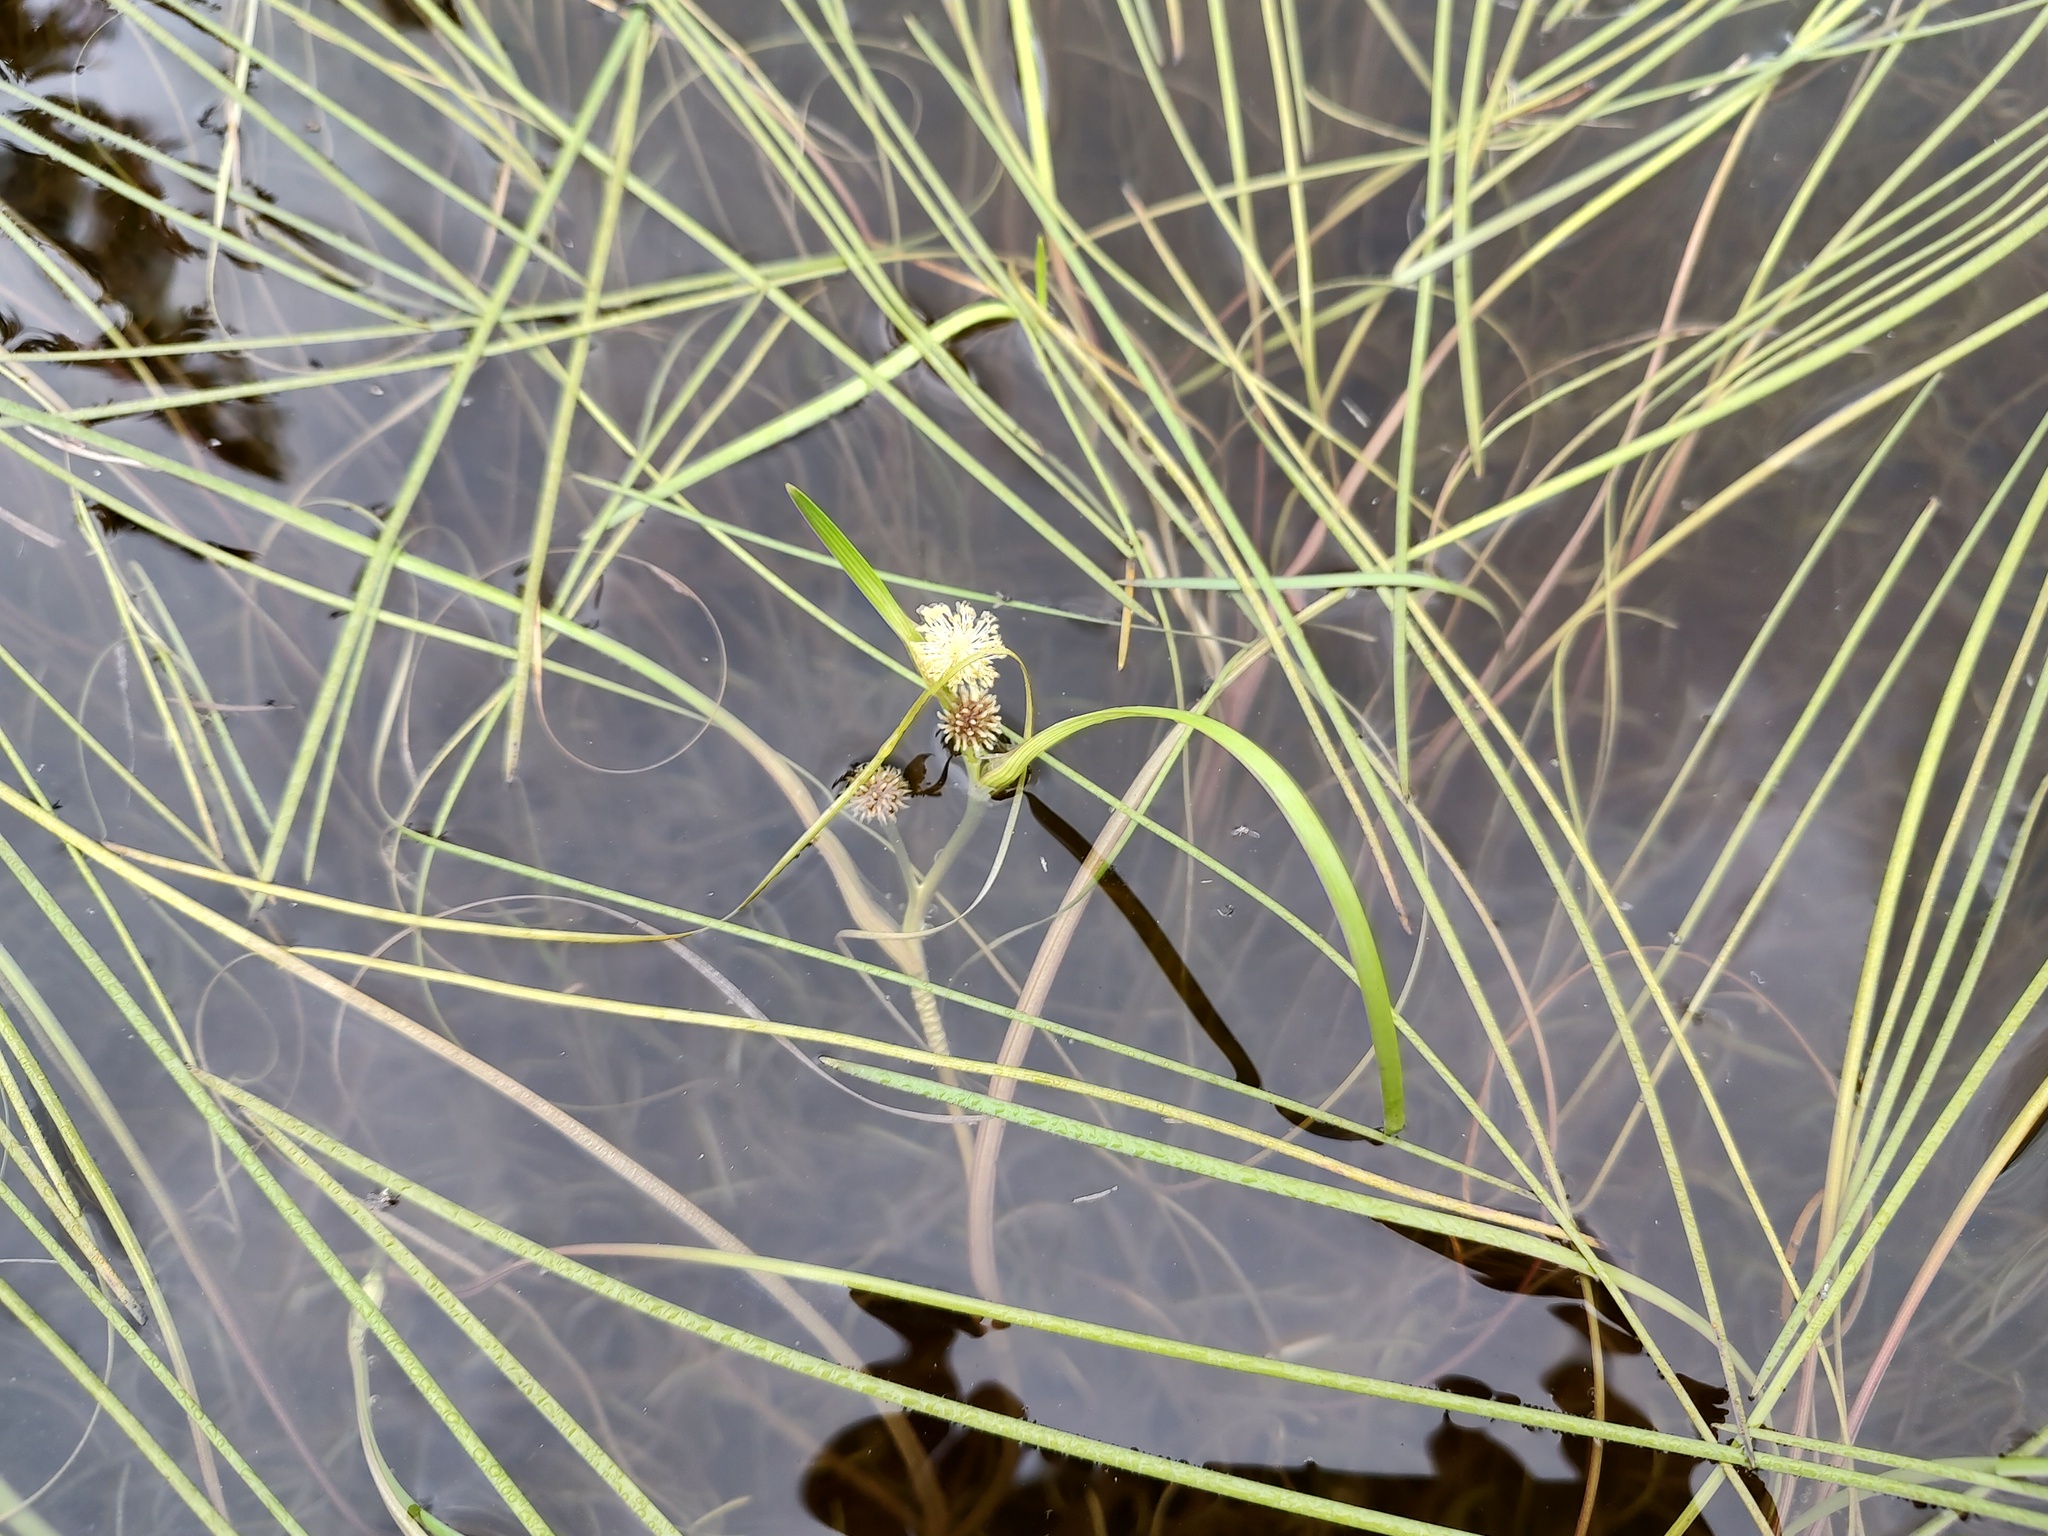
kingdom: Plantae
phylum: Tracheophyta
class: Liliopsida
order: Poales
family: Typhaceae
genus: Sparganium
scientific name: Sparganium angustifolium
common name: Floating bur-reed
